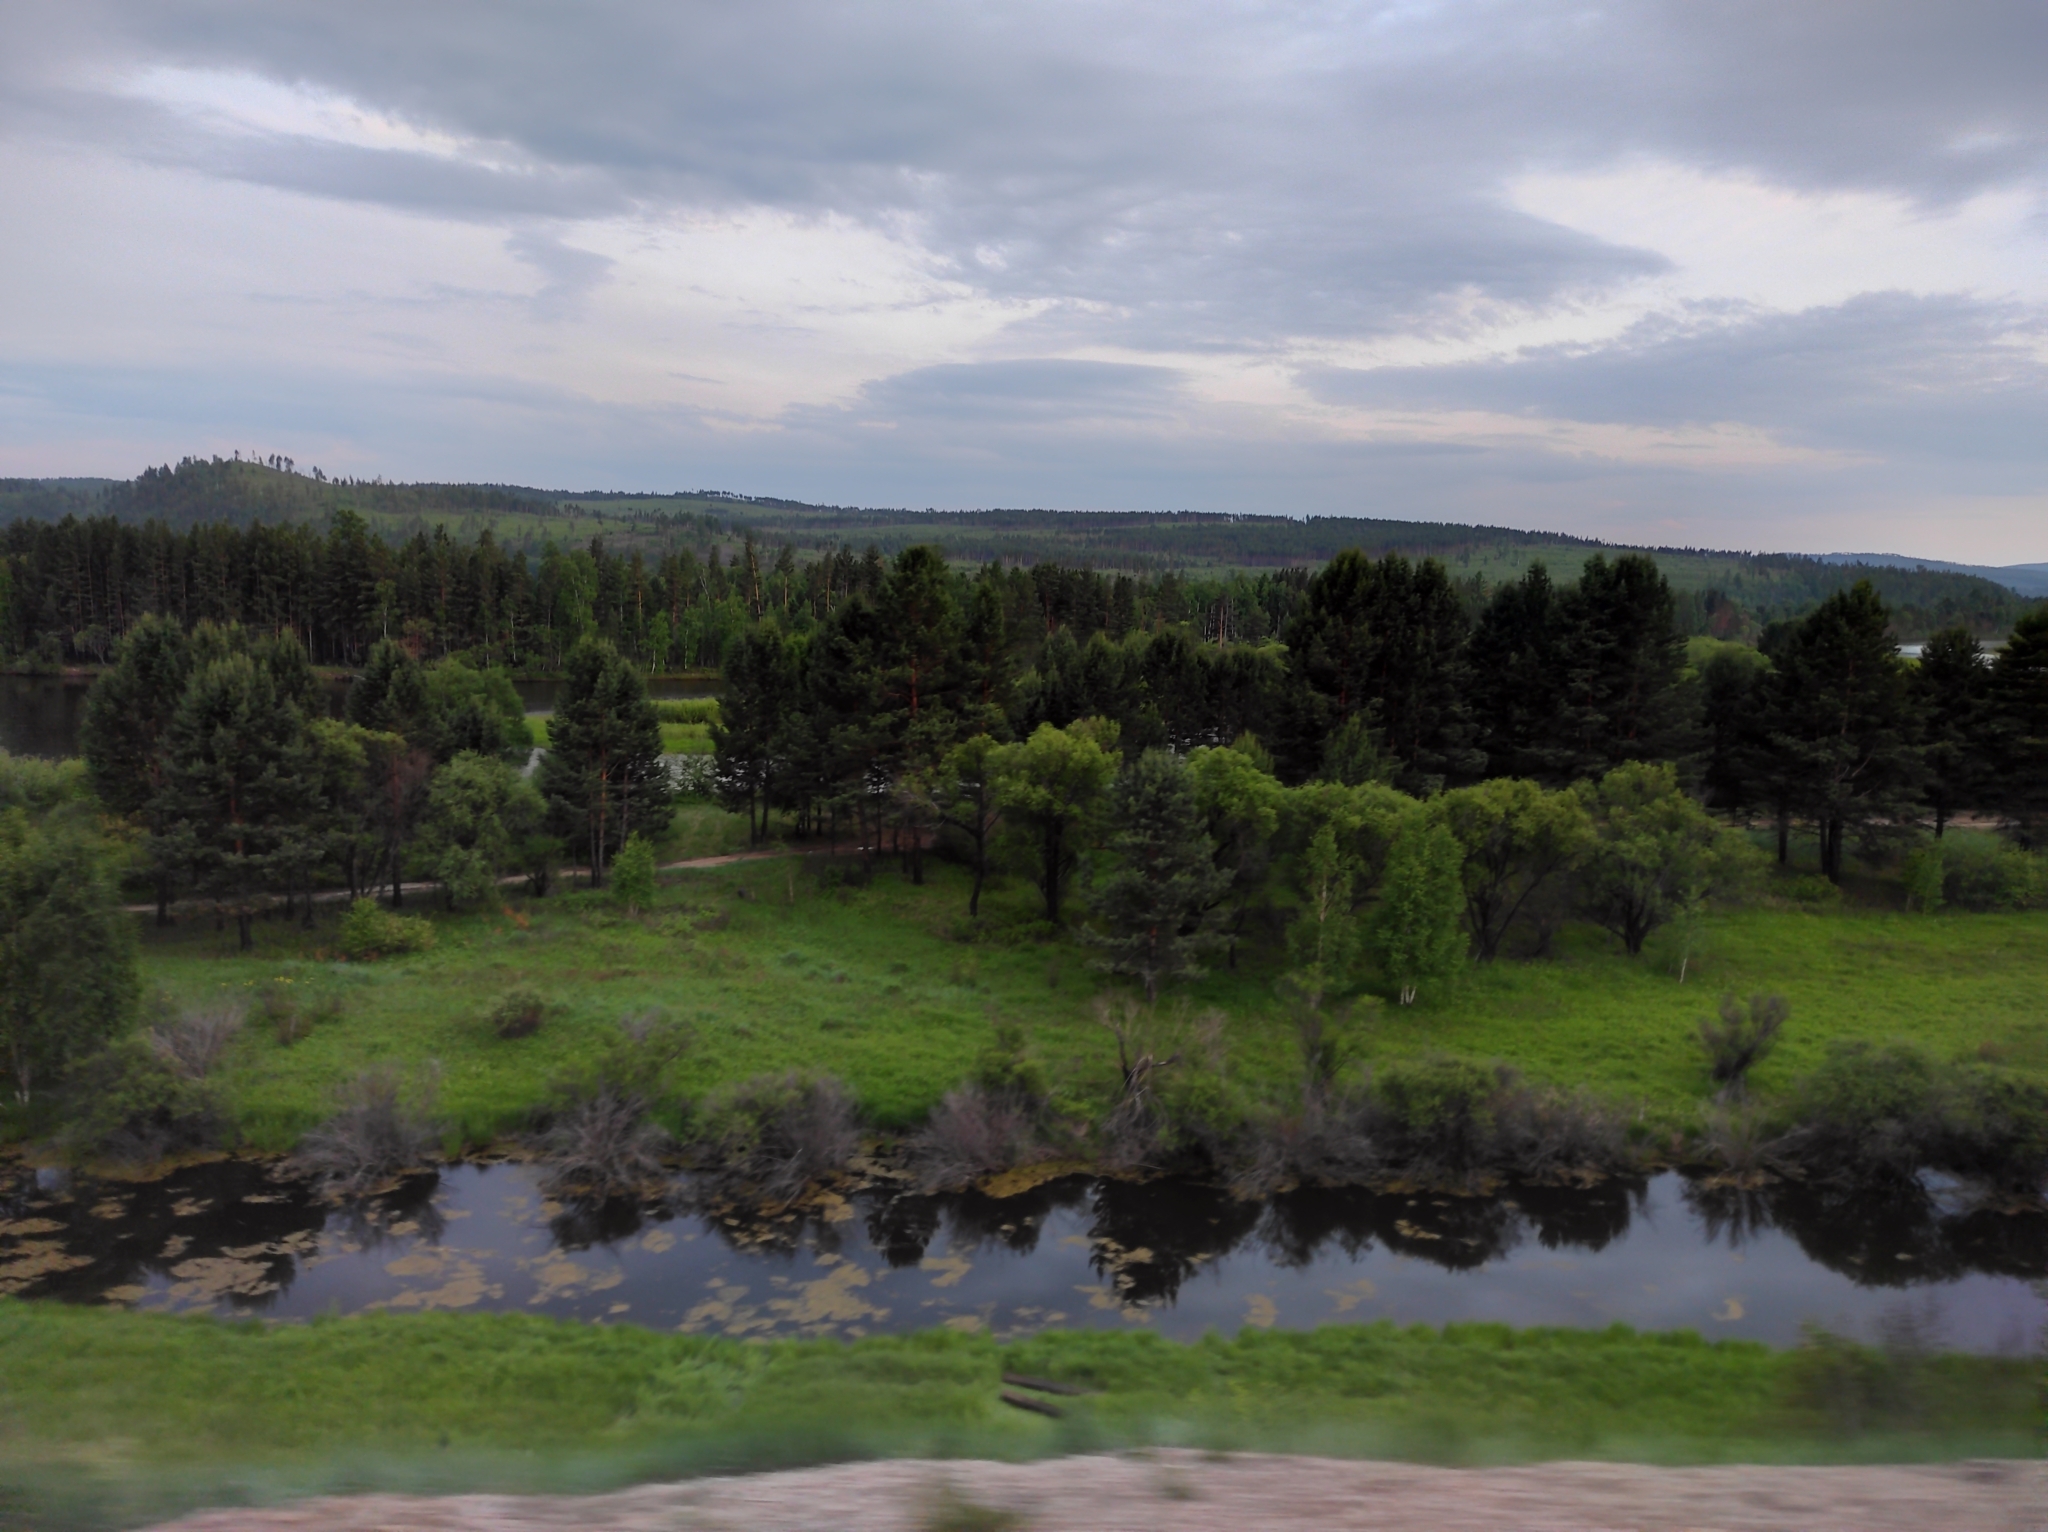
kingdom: Plantae
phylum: Tracheophyta
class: Magnoliopsida
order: Fagales
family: Betulaceae
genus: Betula
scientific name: Betula pendula
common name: Silver birch
